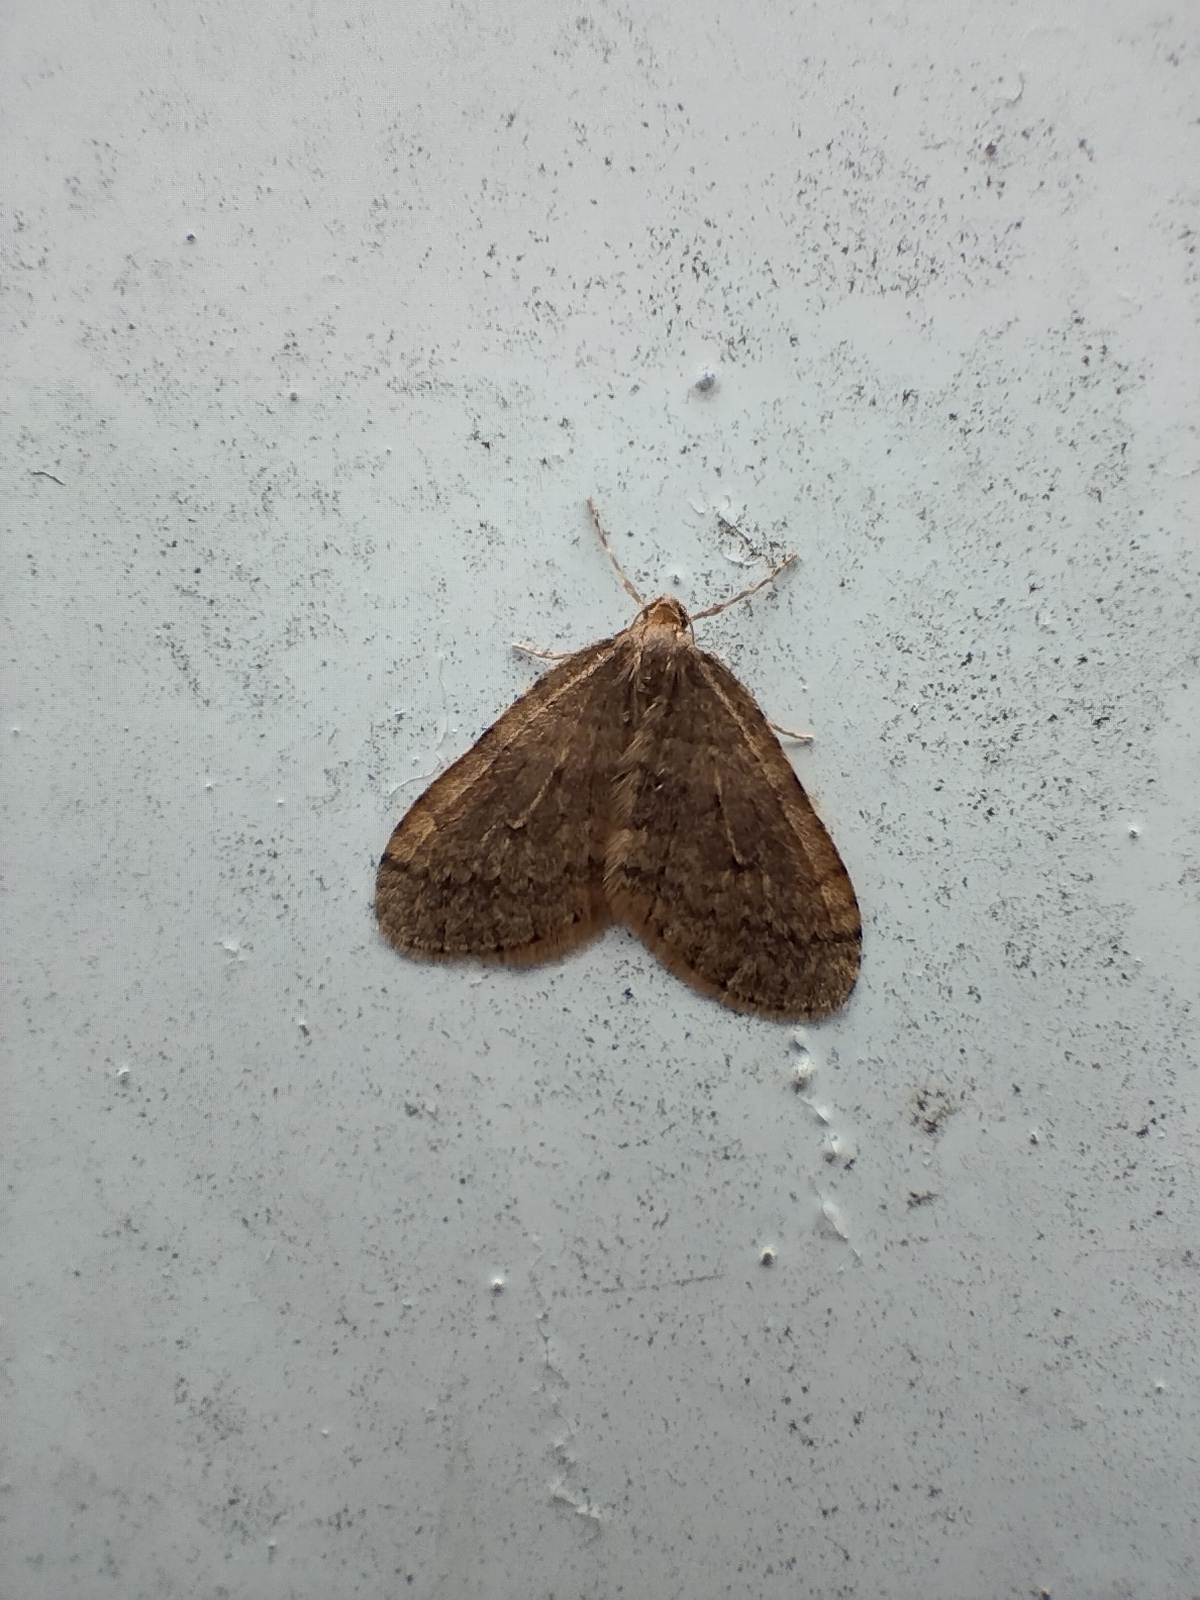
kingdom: Animalia
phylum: Arthropoda
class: Insecta
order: Lepidoptera
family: Geometridae
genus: Operophtera
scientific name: Operophtera brumata
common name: Winter moth
